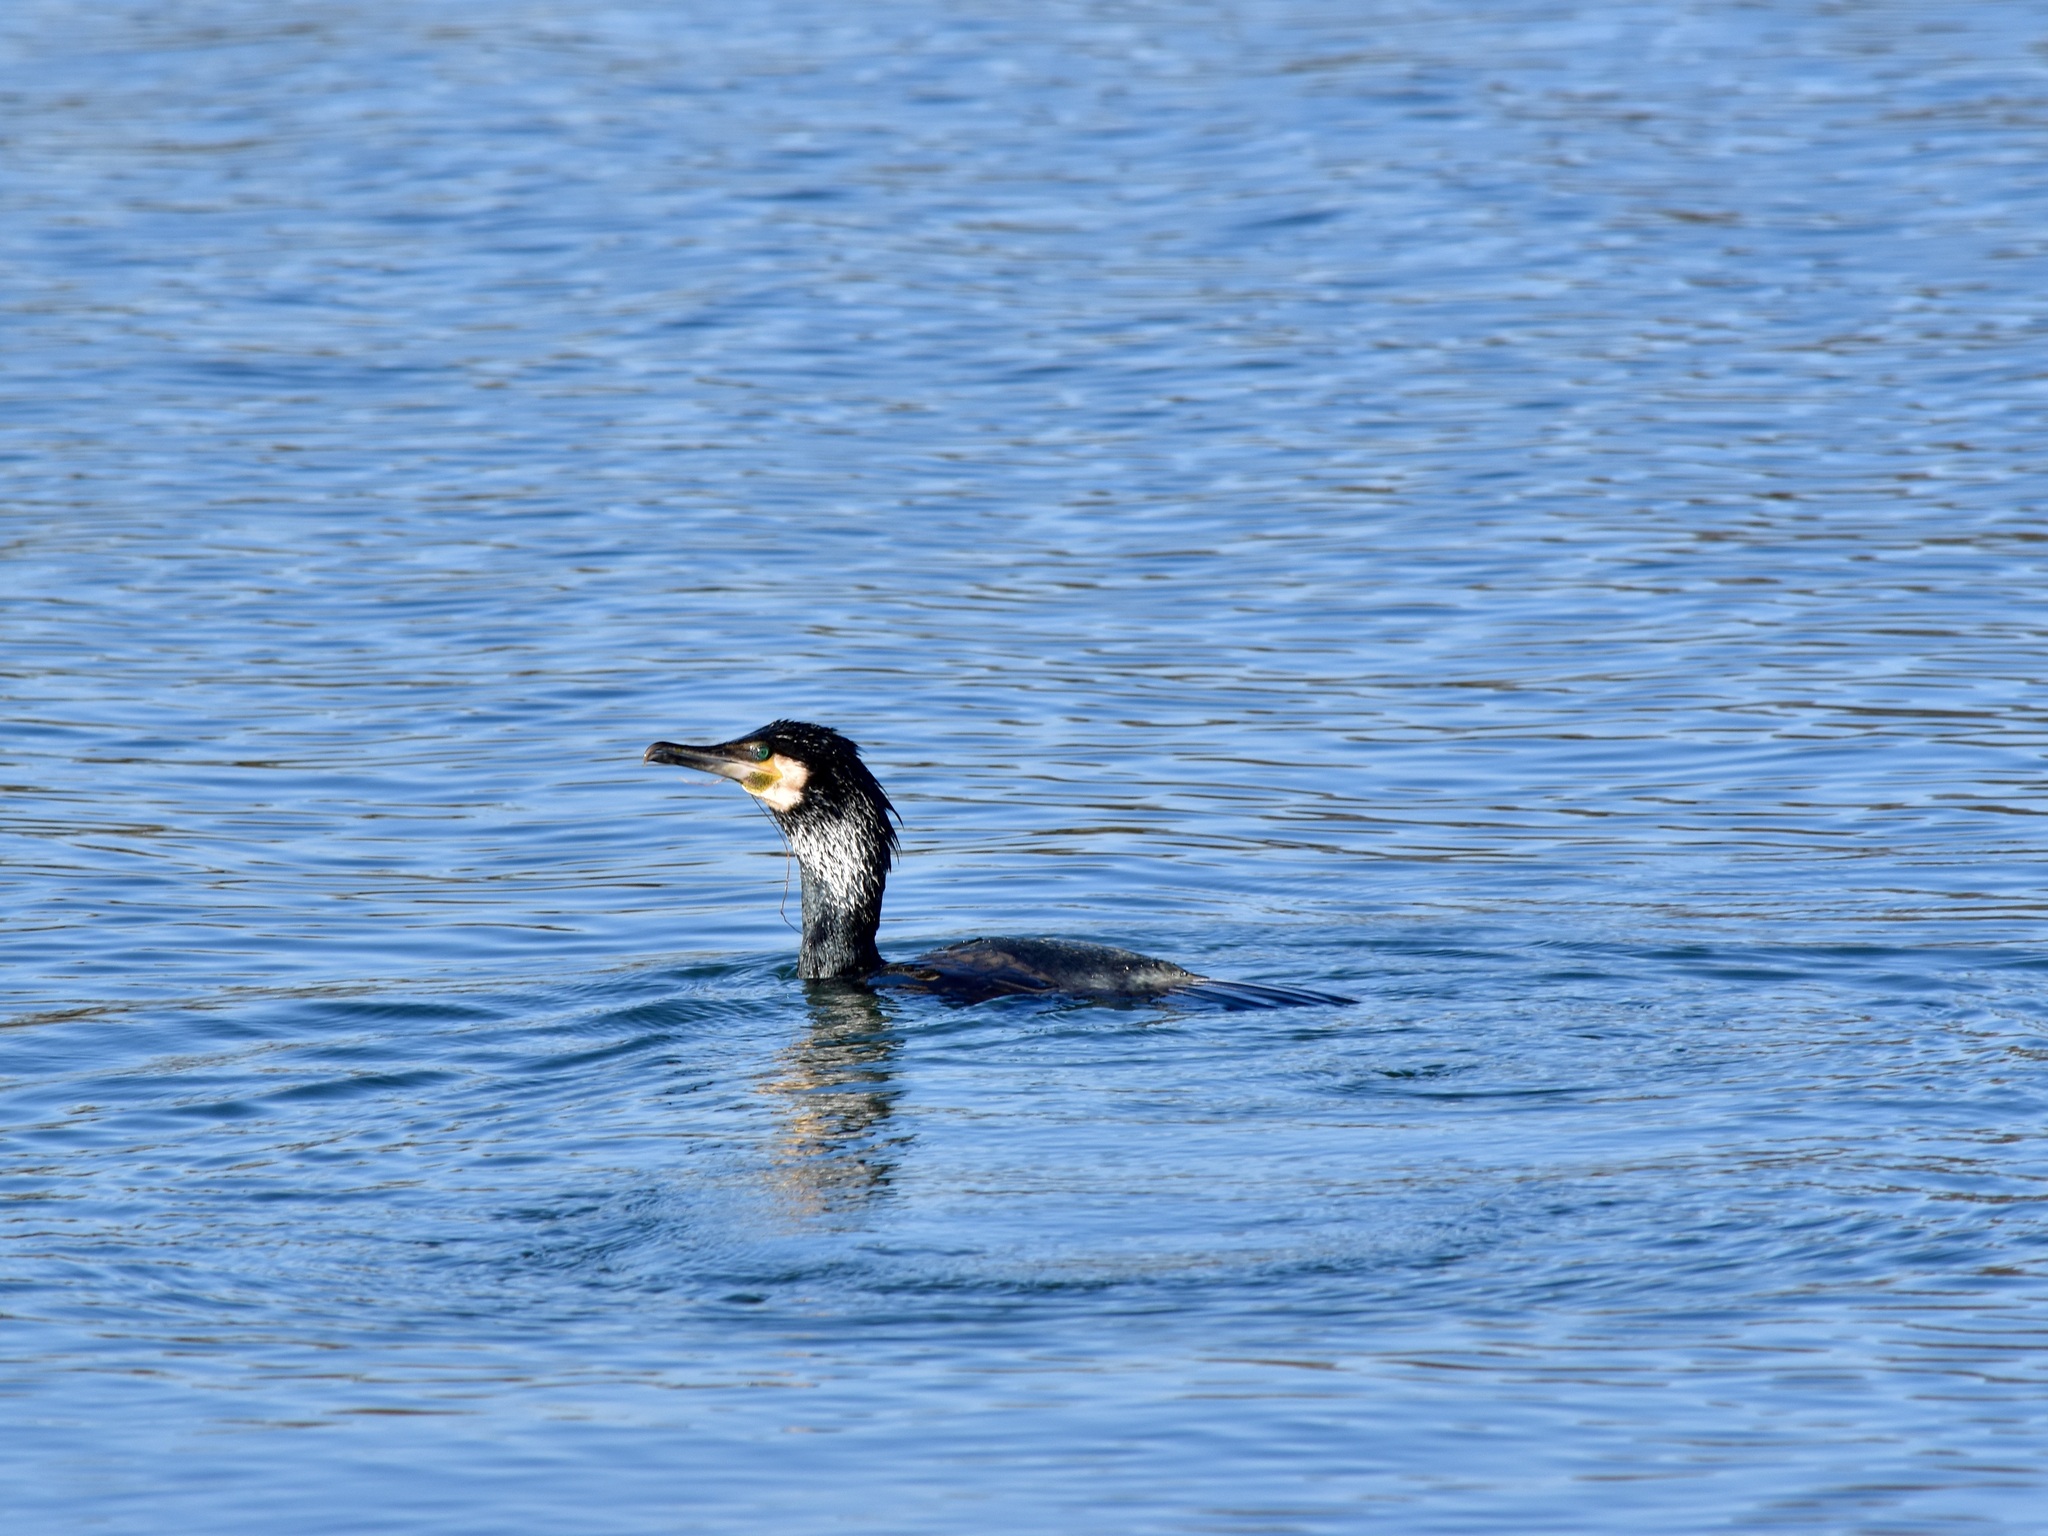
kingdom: Animalia
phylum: Chordata
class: Aves
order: Suliformes
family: Phalacrocoracidae
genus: Phalacrocorax
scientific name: Phalacrocorax carbo
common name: Great cormorant
